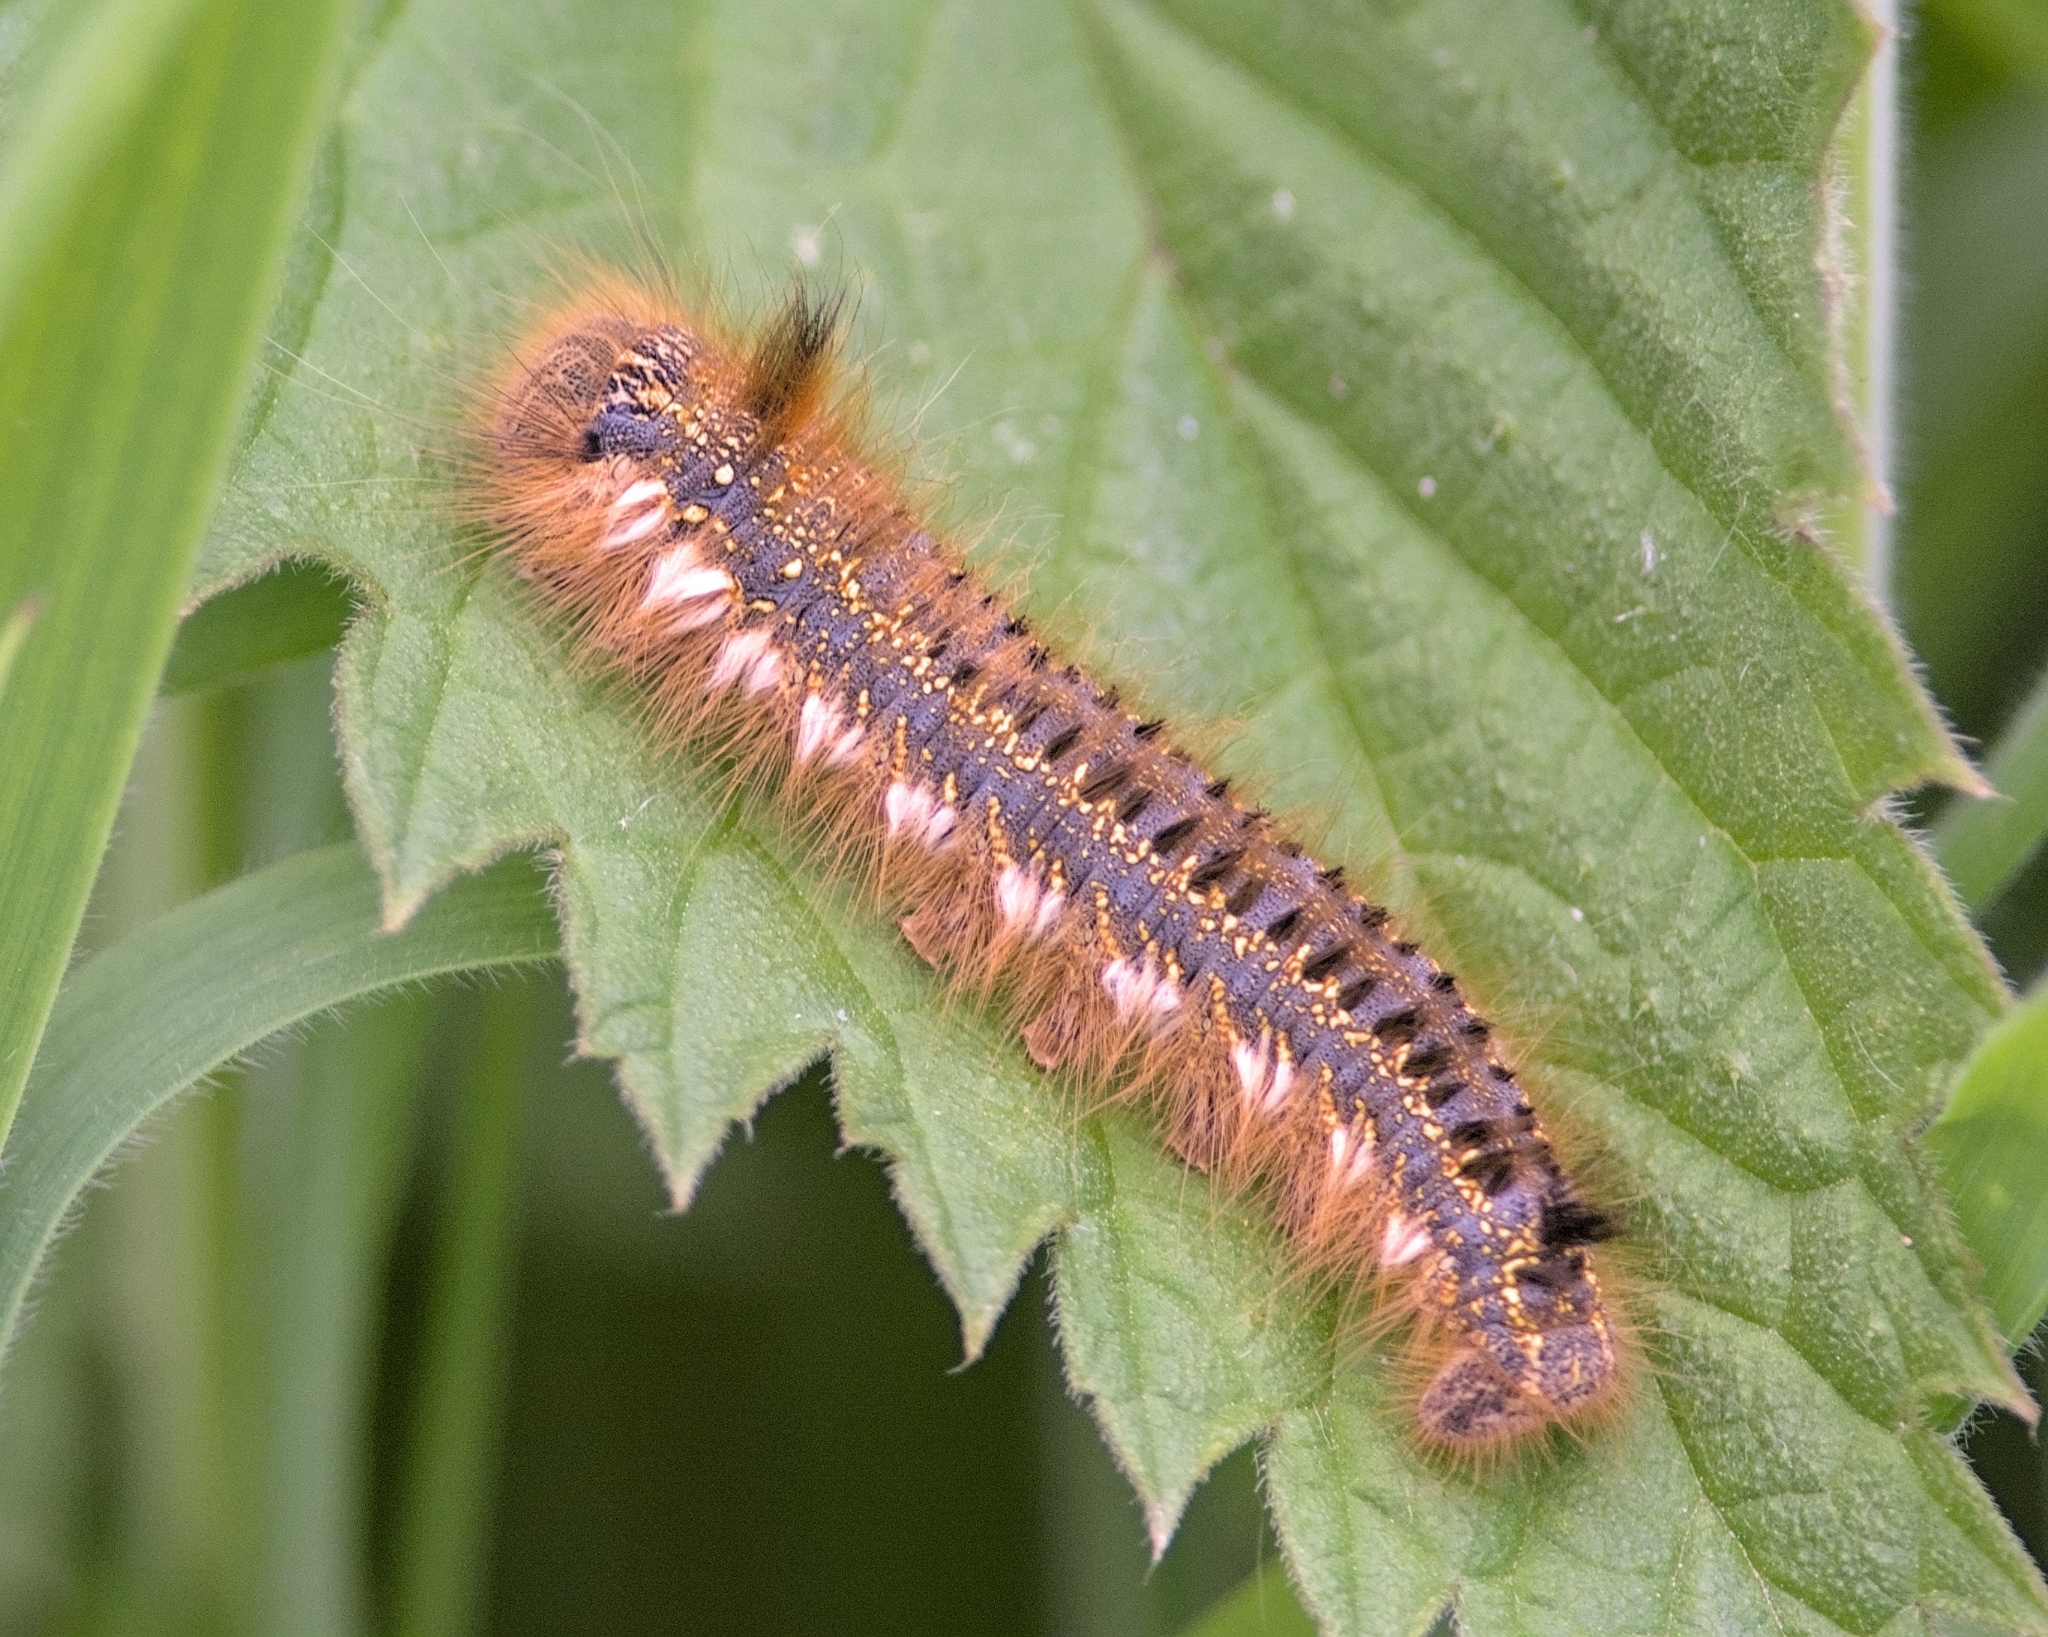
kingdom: Animalia
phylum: Arthropoda
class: Insecta
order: Lepidoptera
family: Lasiocampidae
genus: Euthrix
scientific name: Euthrix potatoria
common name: Drinker
